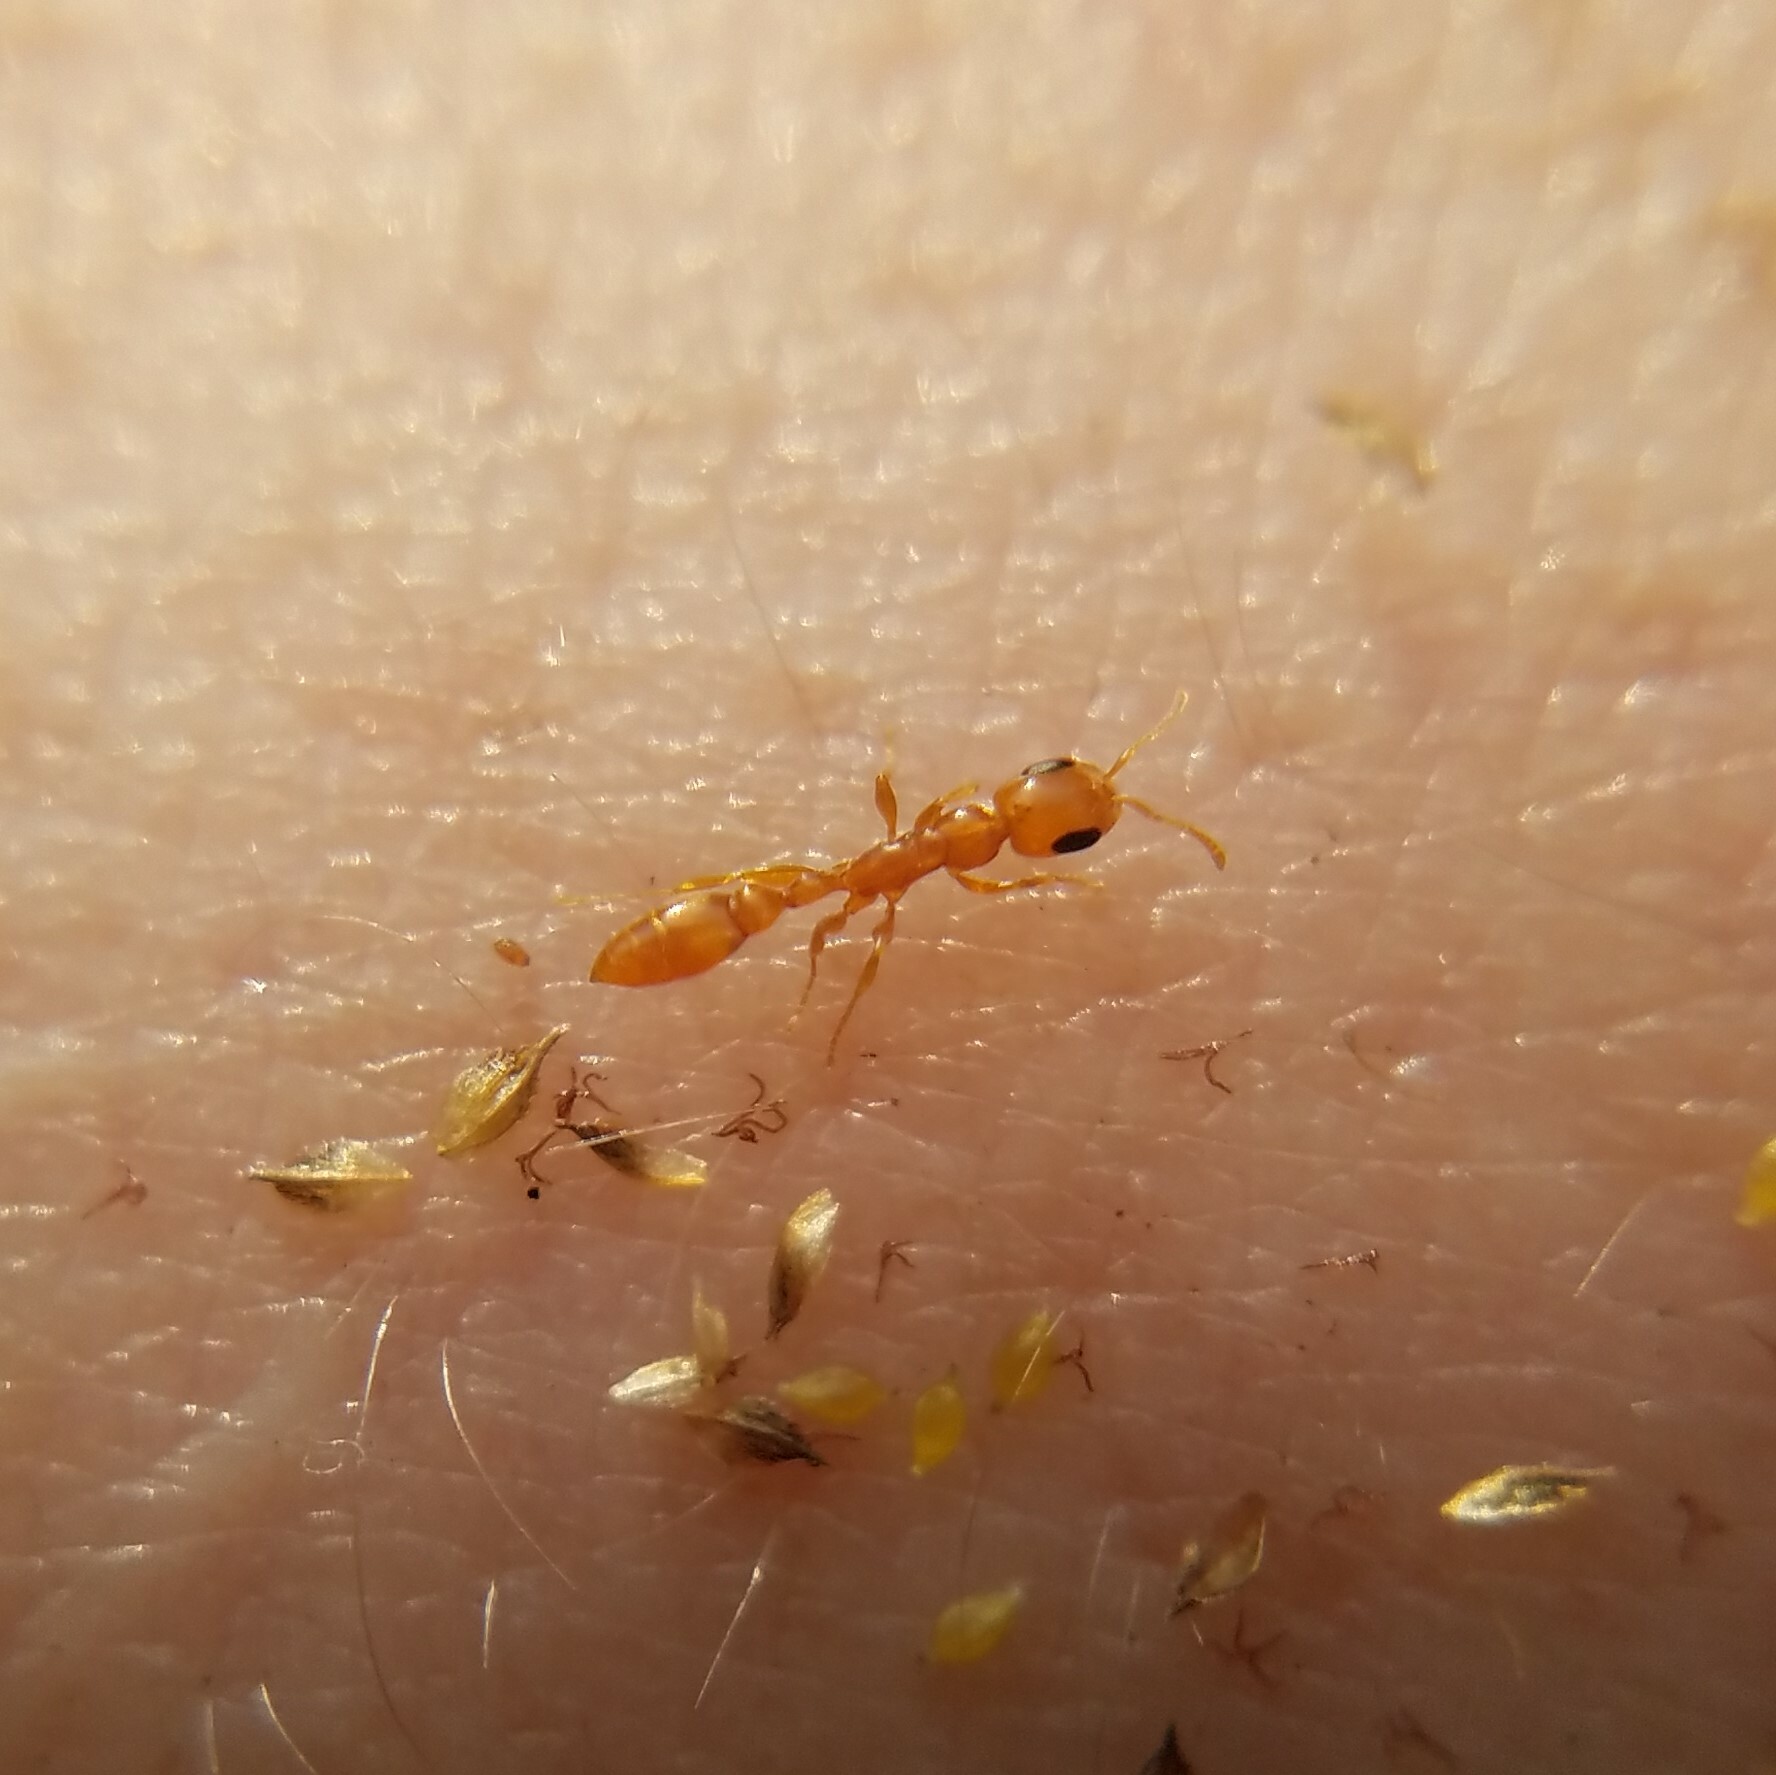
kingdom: Animalia
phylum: Arthropoda
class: Insecta
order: Hymenoptera
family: Formicidae
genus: Pseudomyrmex
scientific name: Pseudomyrmex pallidus
